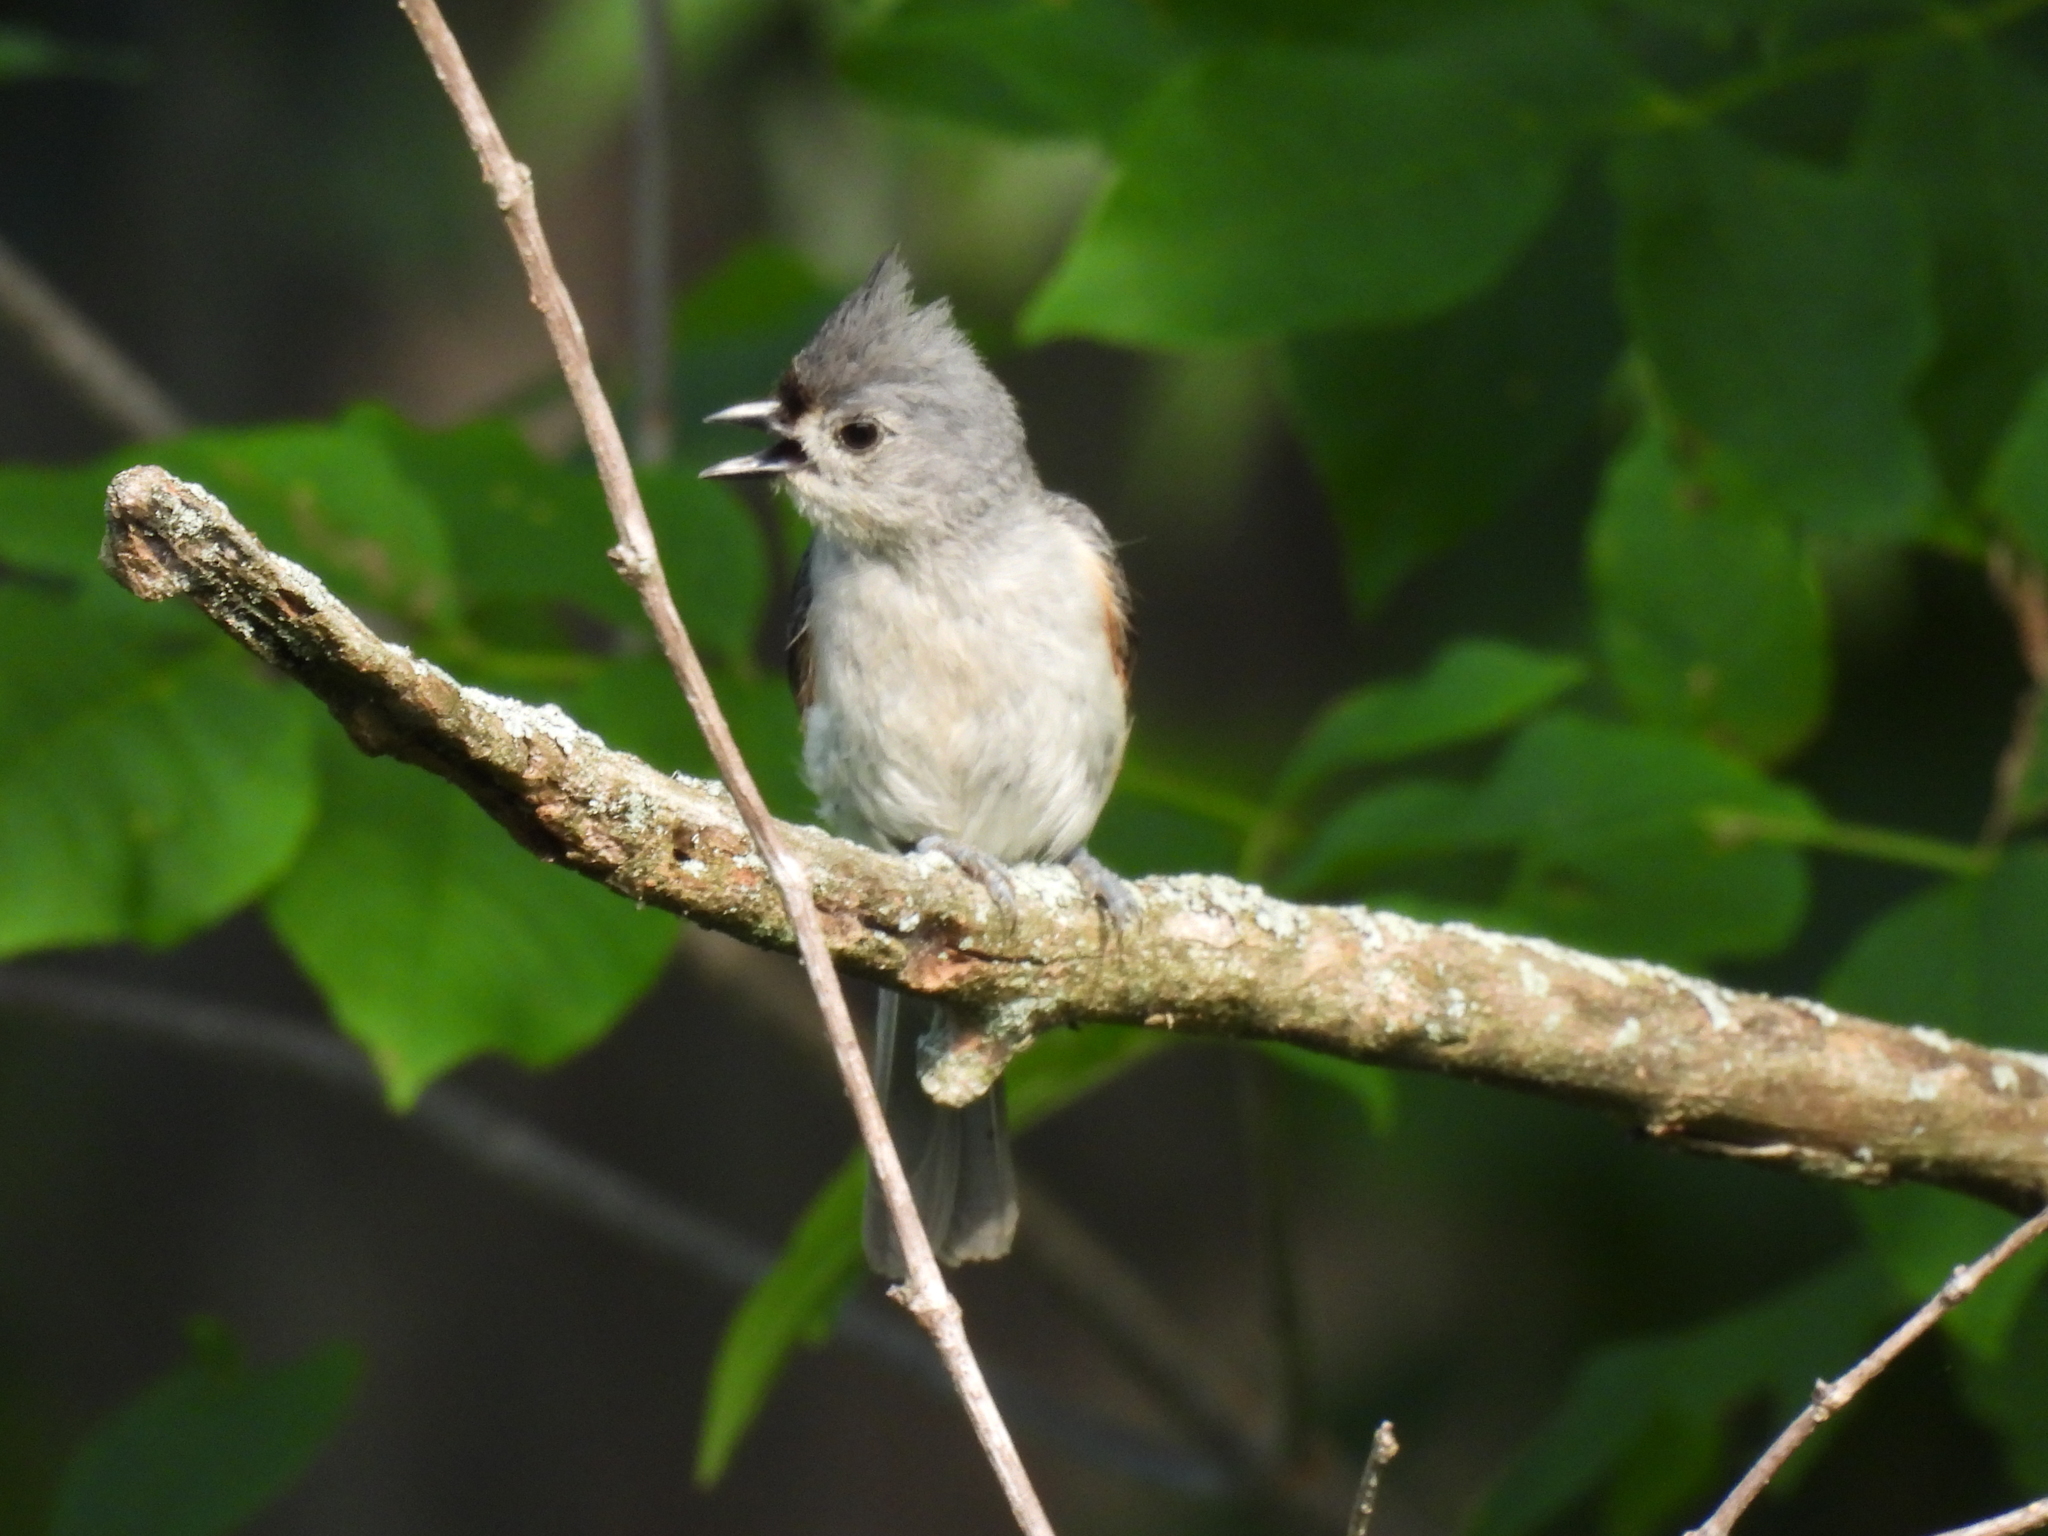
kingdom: Animalia
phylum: Chordata
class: Aves
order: Passeriformes
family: Paridae
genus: Baeolophus
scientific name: Baeolophus bicolor
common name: Tufted titmouse
